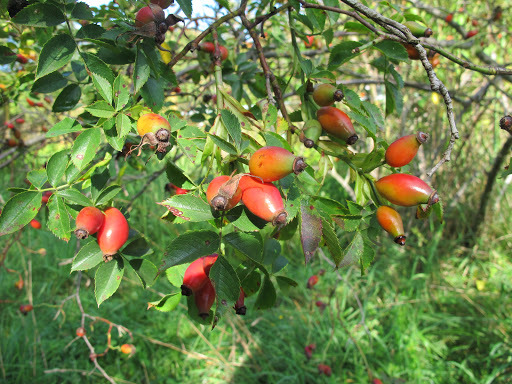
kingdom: Plantae
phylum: Tracheophyta
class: Magnoliopsida
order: Rosales
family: Rosaceae
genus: Rosa
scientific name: Rosa canina
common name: Dog rose
